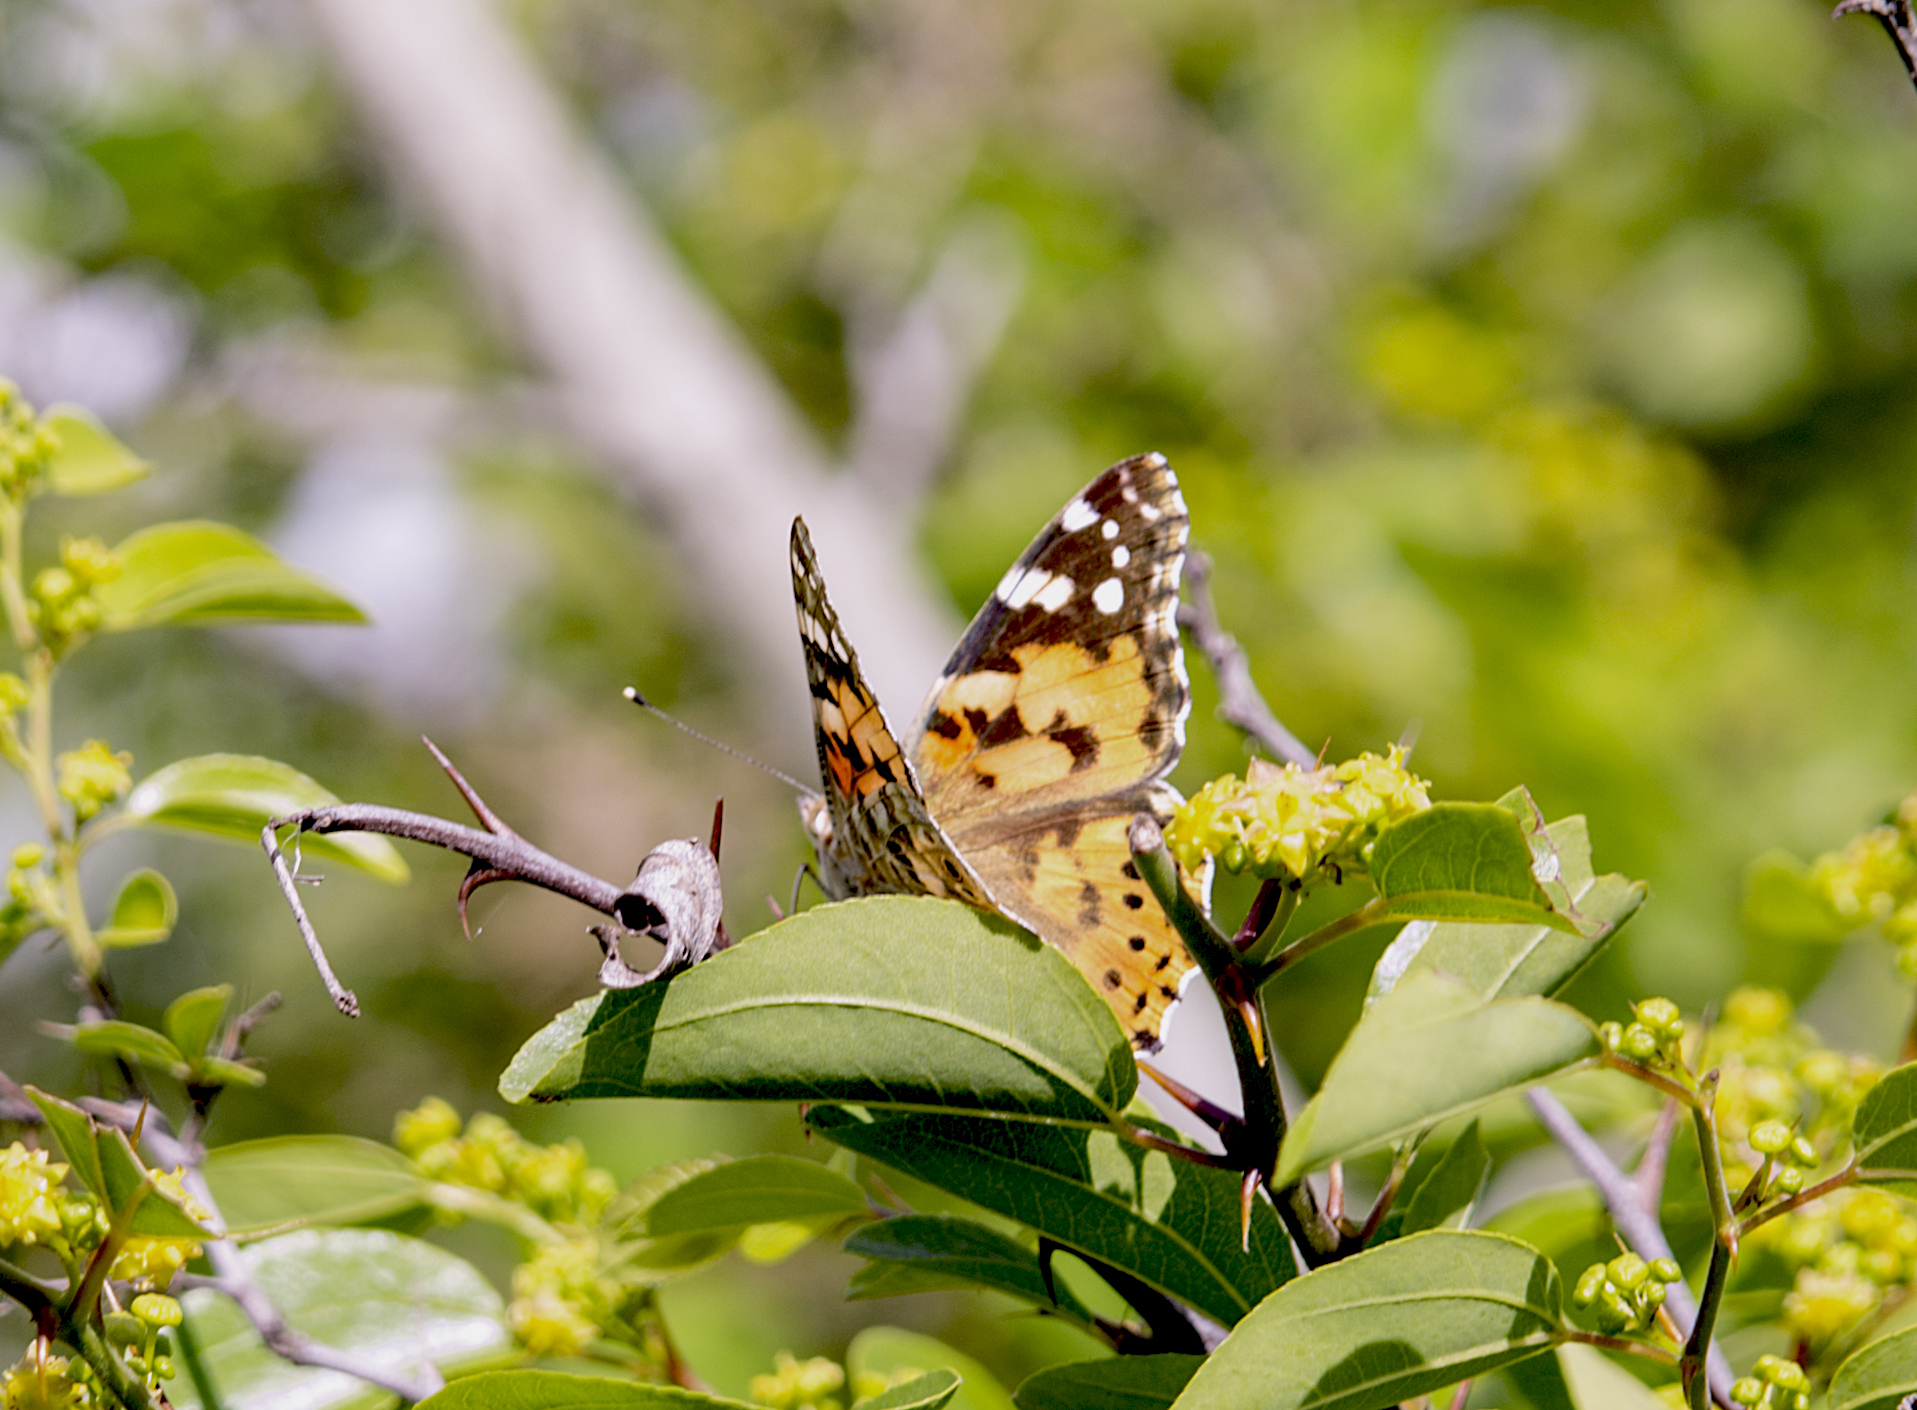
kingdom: Animalia
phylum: Arthropoda
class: Insecta
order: Lepidoptera
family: Nymphalidae
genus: Vanessa
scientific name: Vanessa cardui
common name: Painted lady
